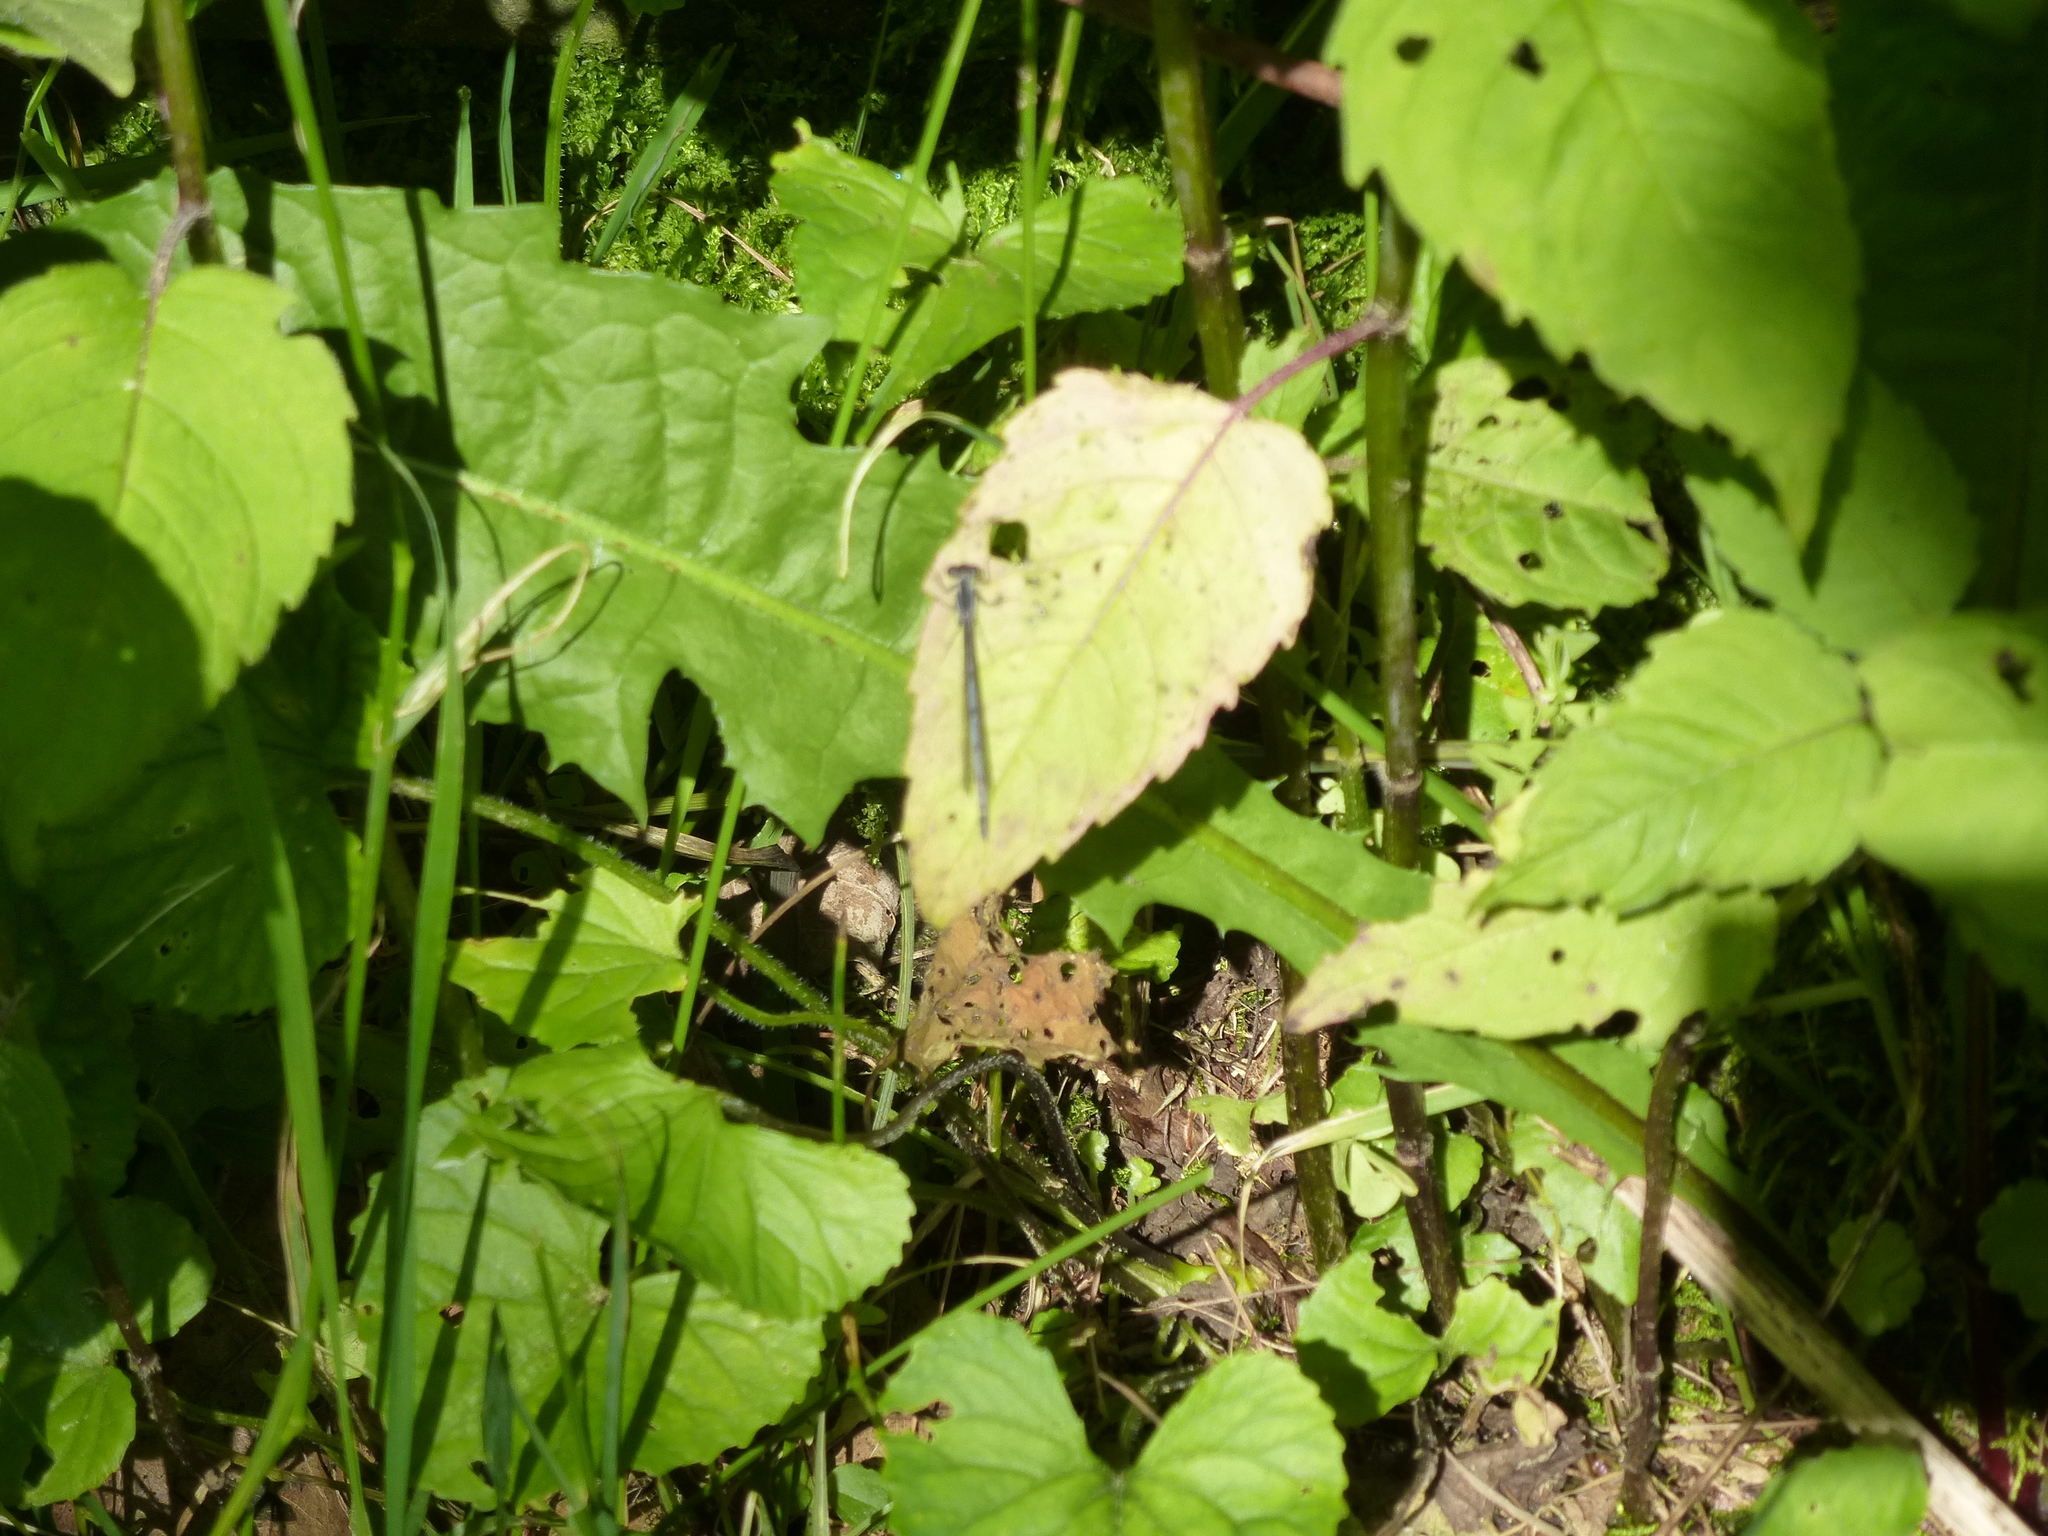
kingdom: Animalia
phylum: Arthropoda
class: Insecta
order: Odonata
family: Coenagrionidae
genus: Ischnura
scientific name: Ischnura
